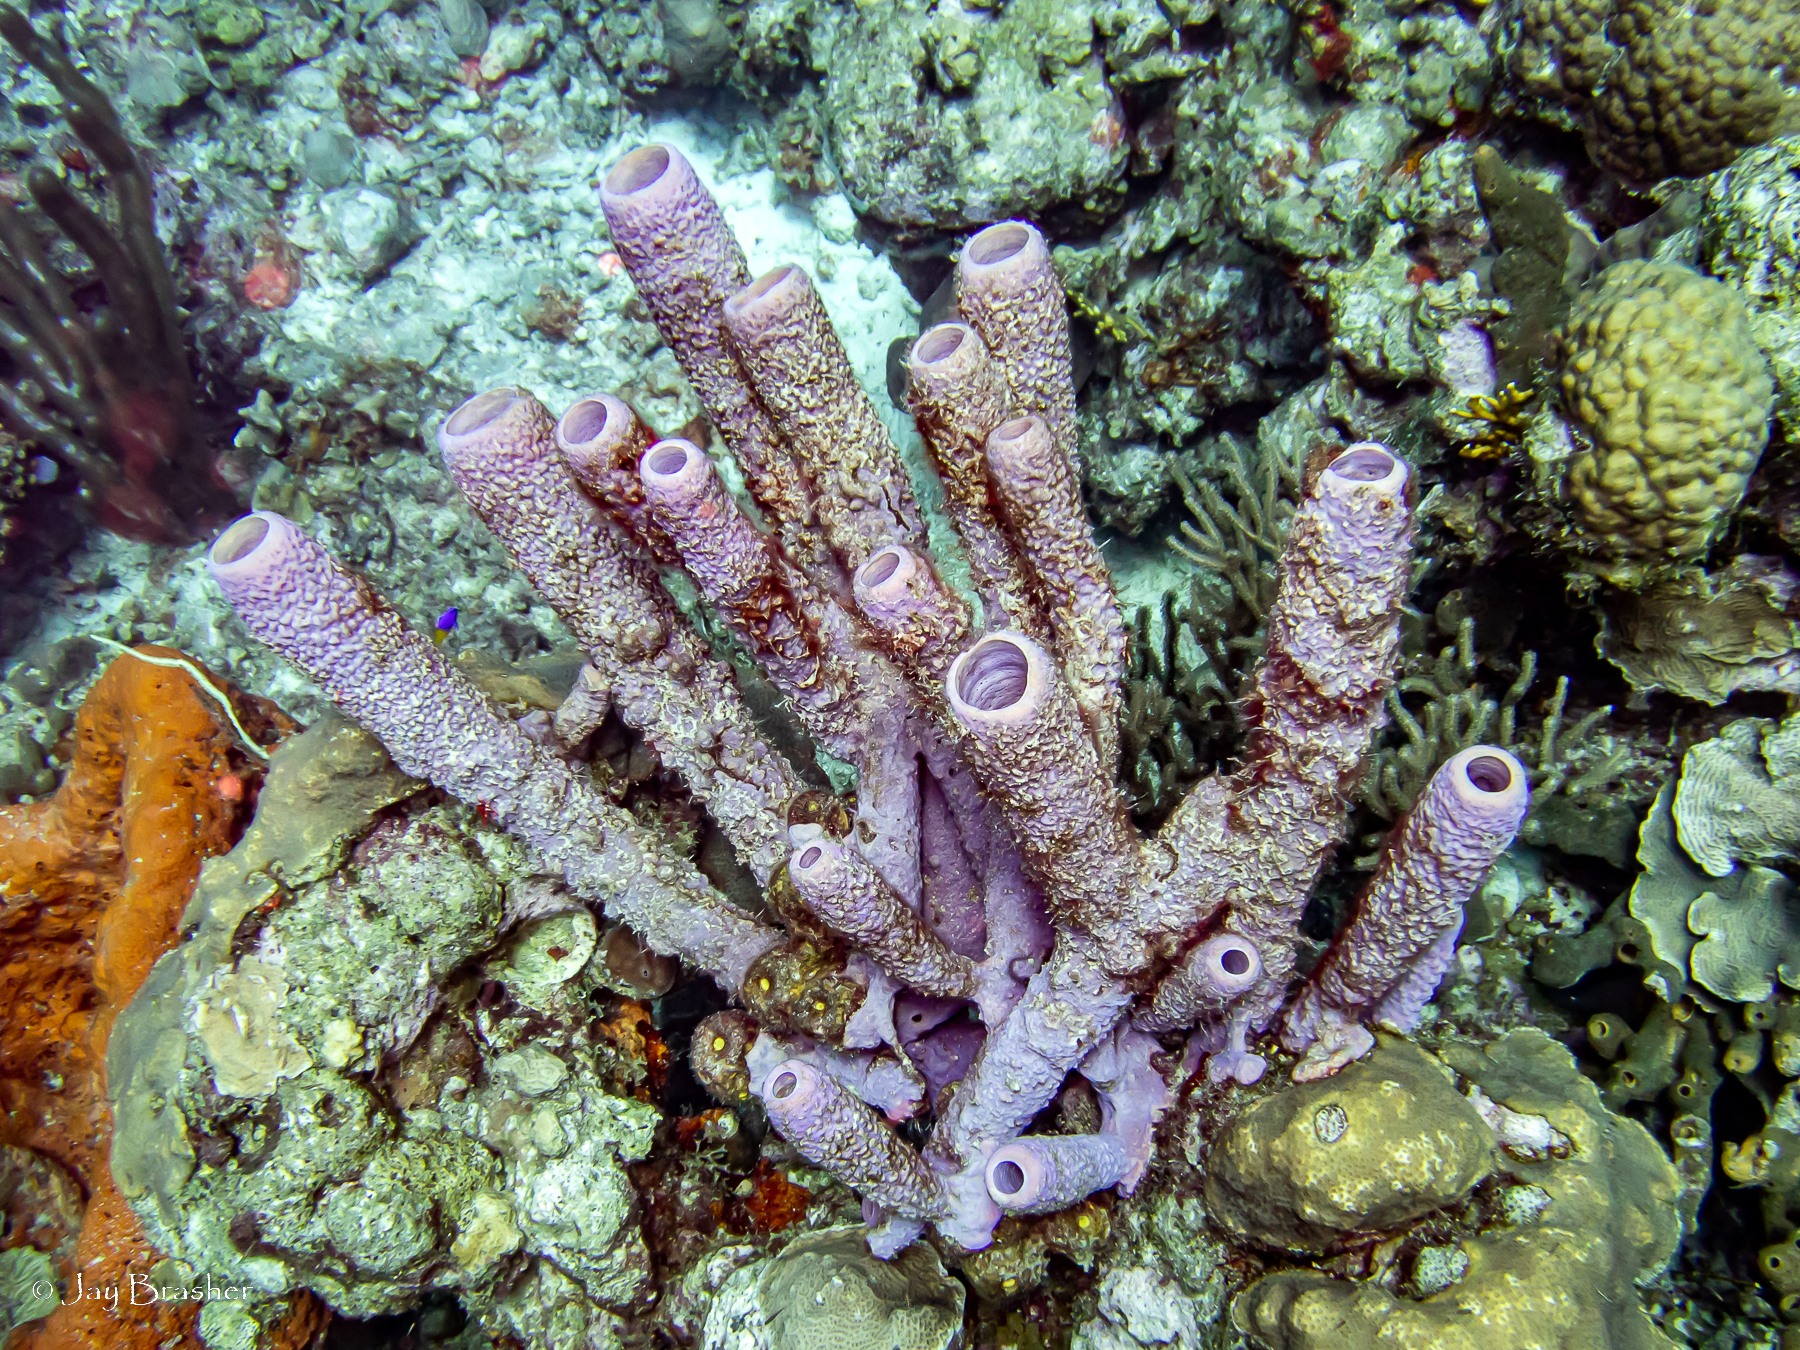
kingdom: Animalia
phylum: Porifera
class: Demospongiae
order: Verongiida
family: Aplysinidae
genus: Aplysina
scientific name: Aplysina archeri
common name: Stove-pipe sponge
